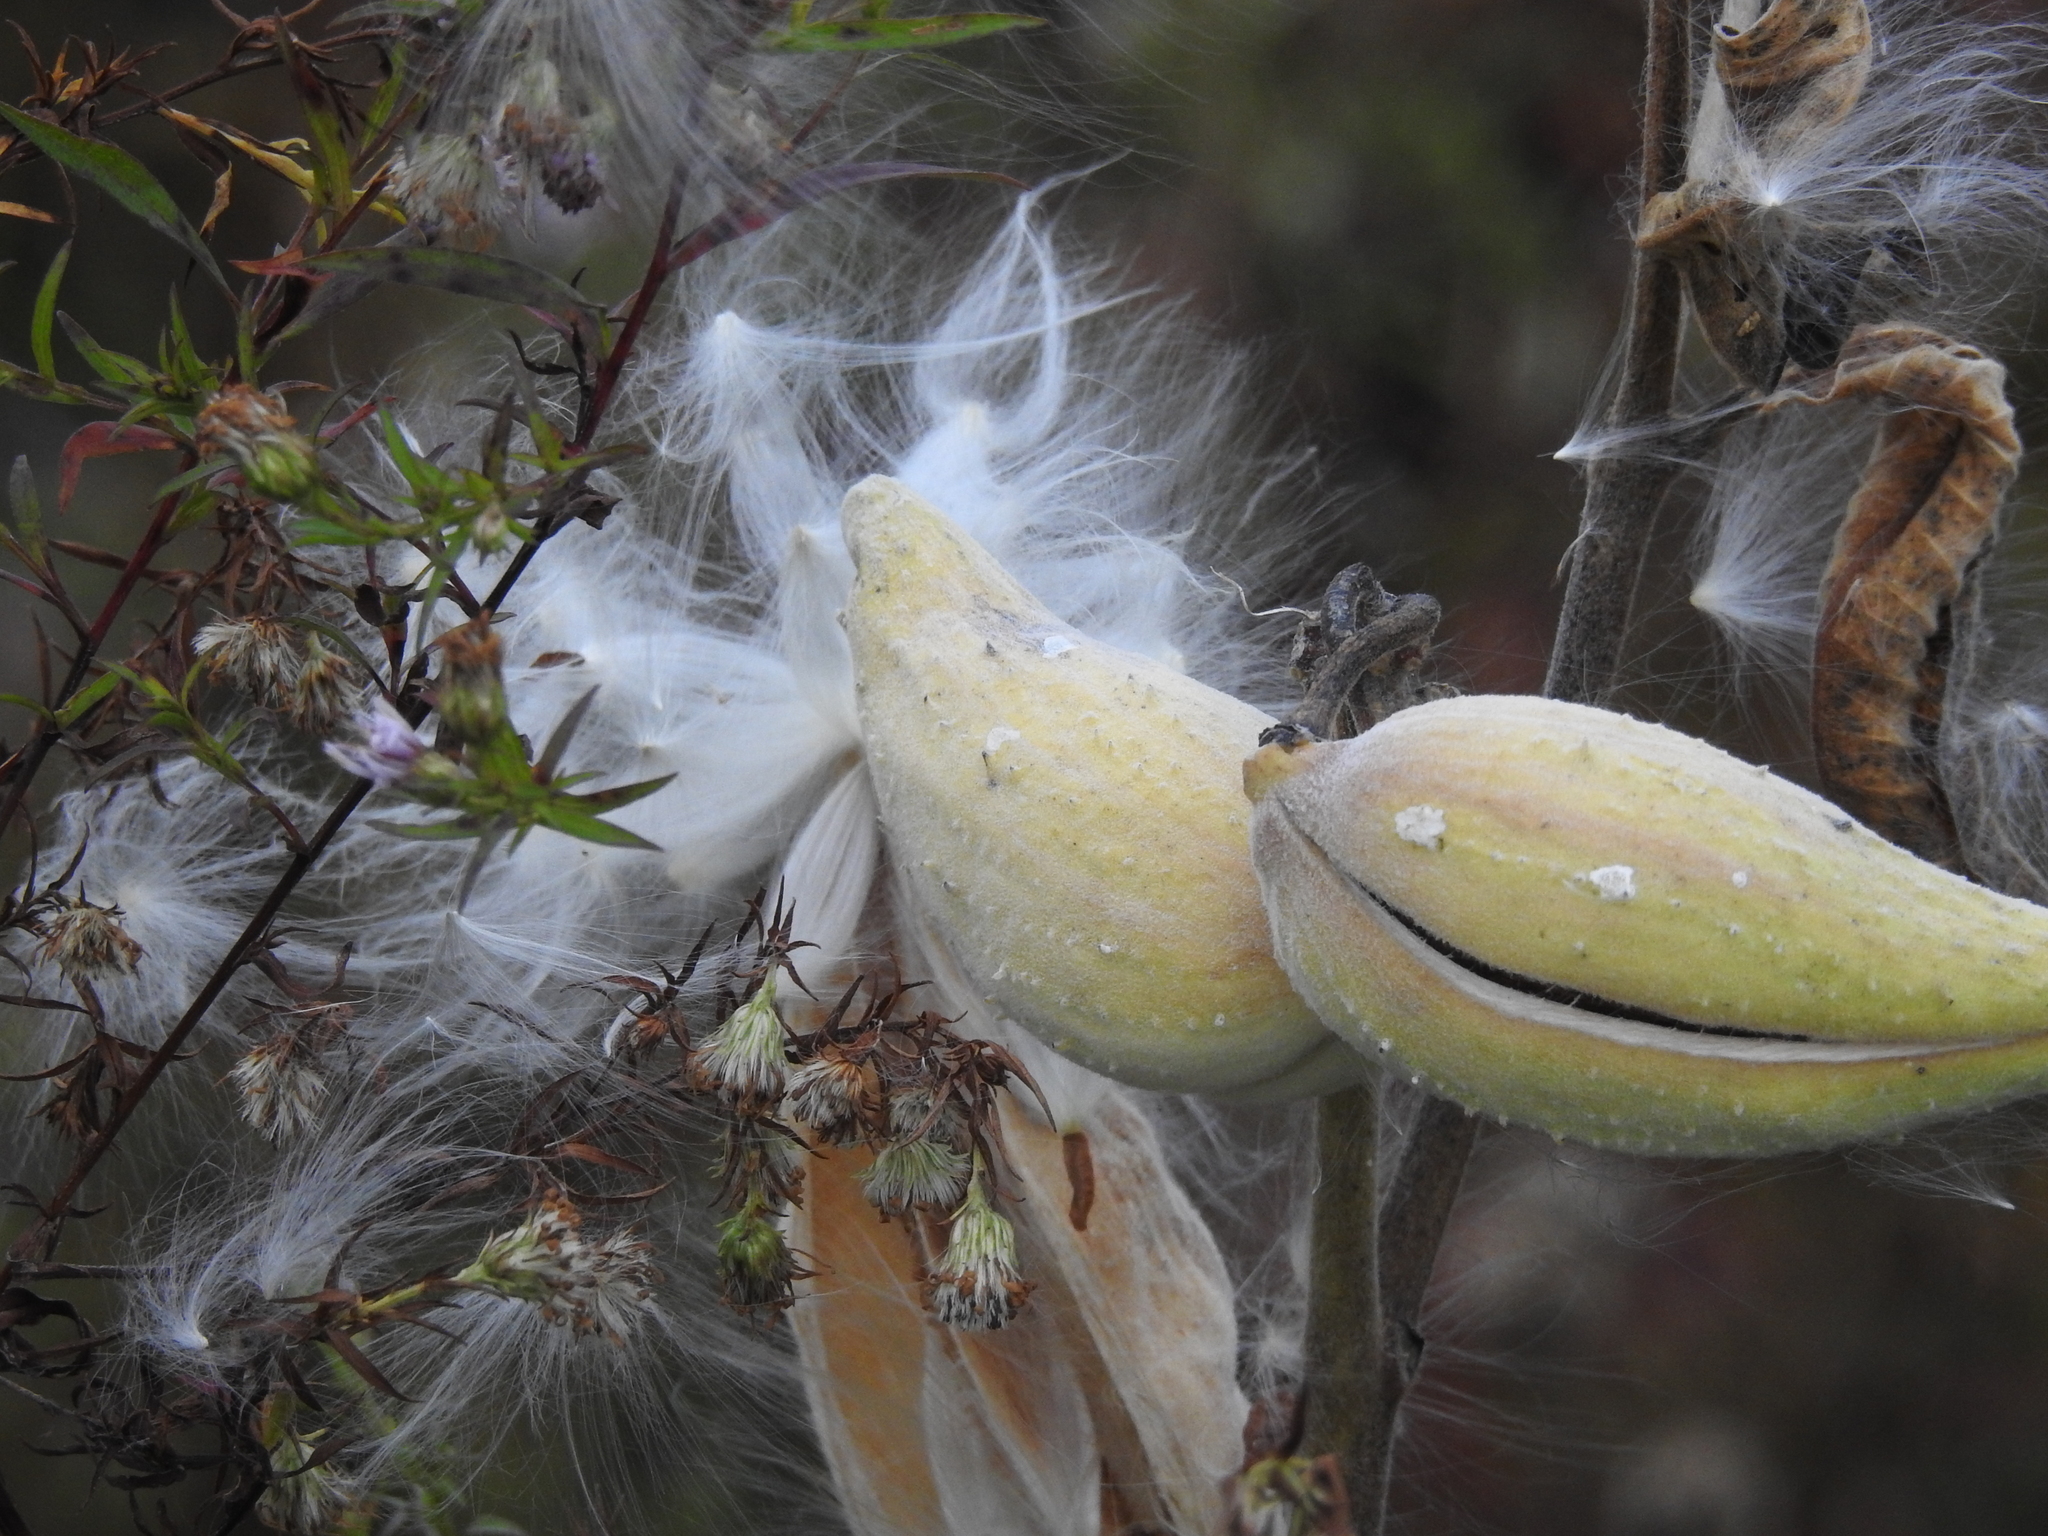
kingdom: Plantae
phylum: Tracheophyta
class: Magnoliopsida
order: Gentianales
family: Apocynaceae
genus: Asclepias
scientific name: Asclepias syriaca
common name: Common milkweed
